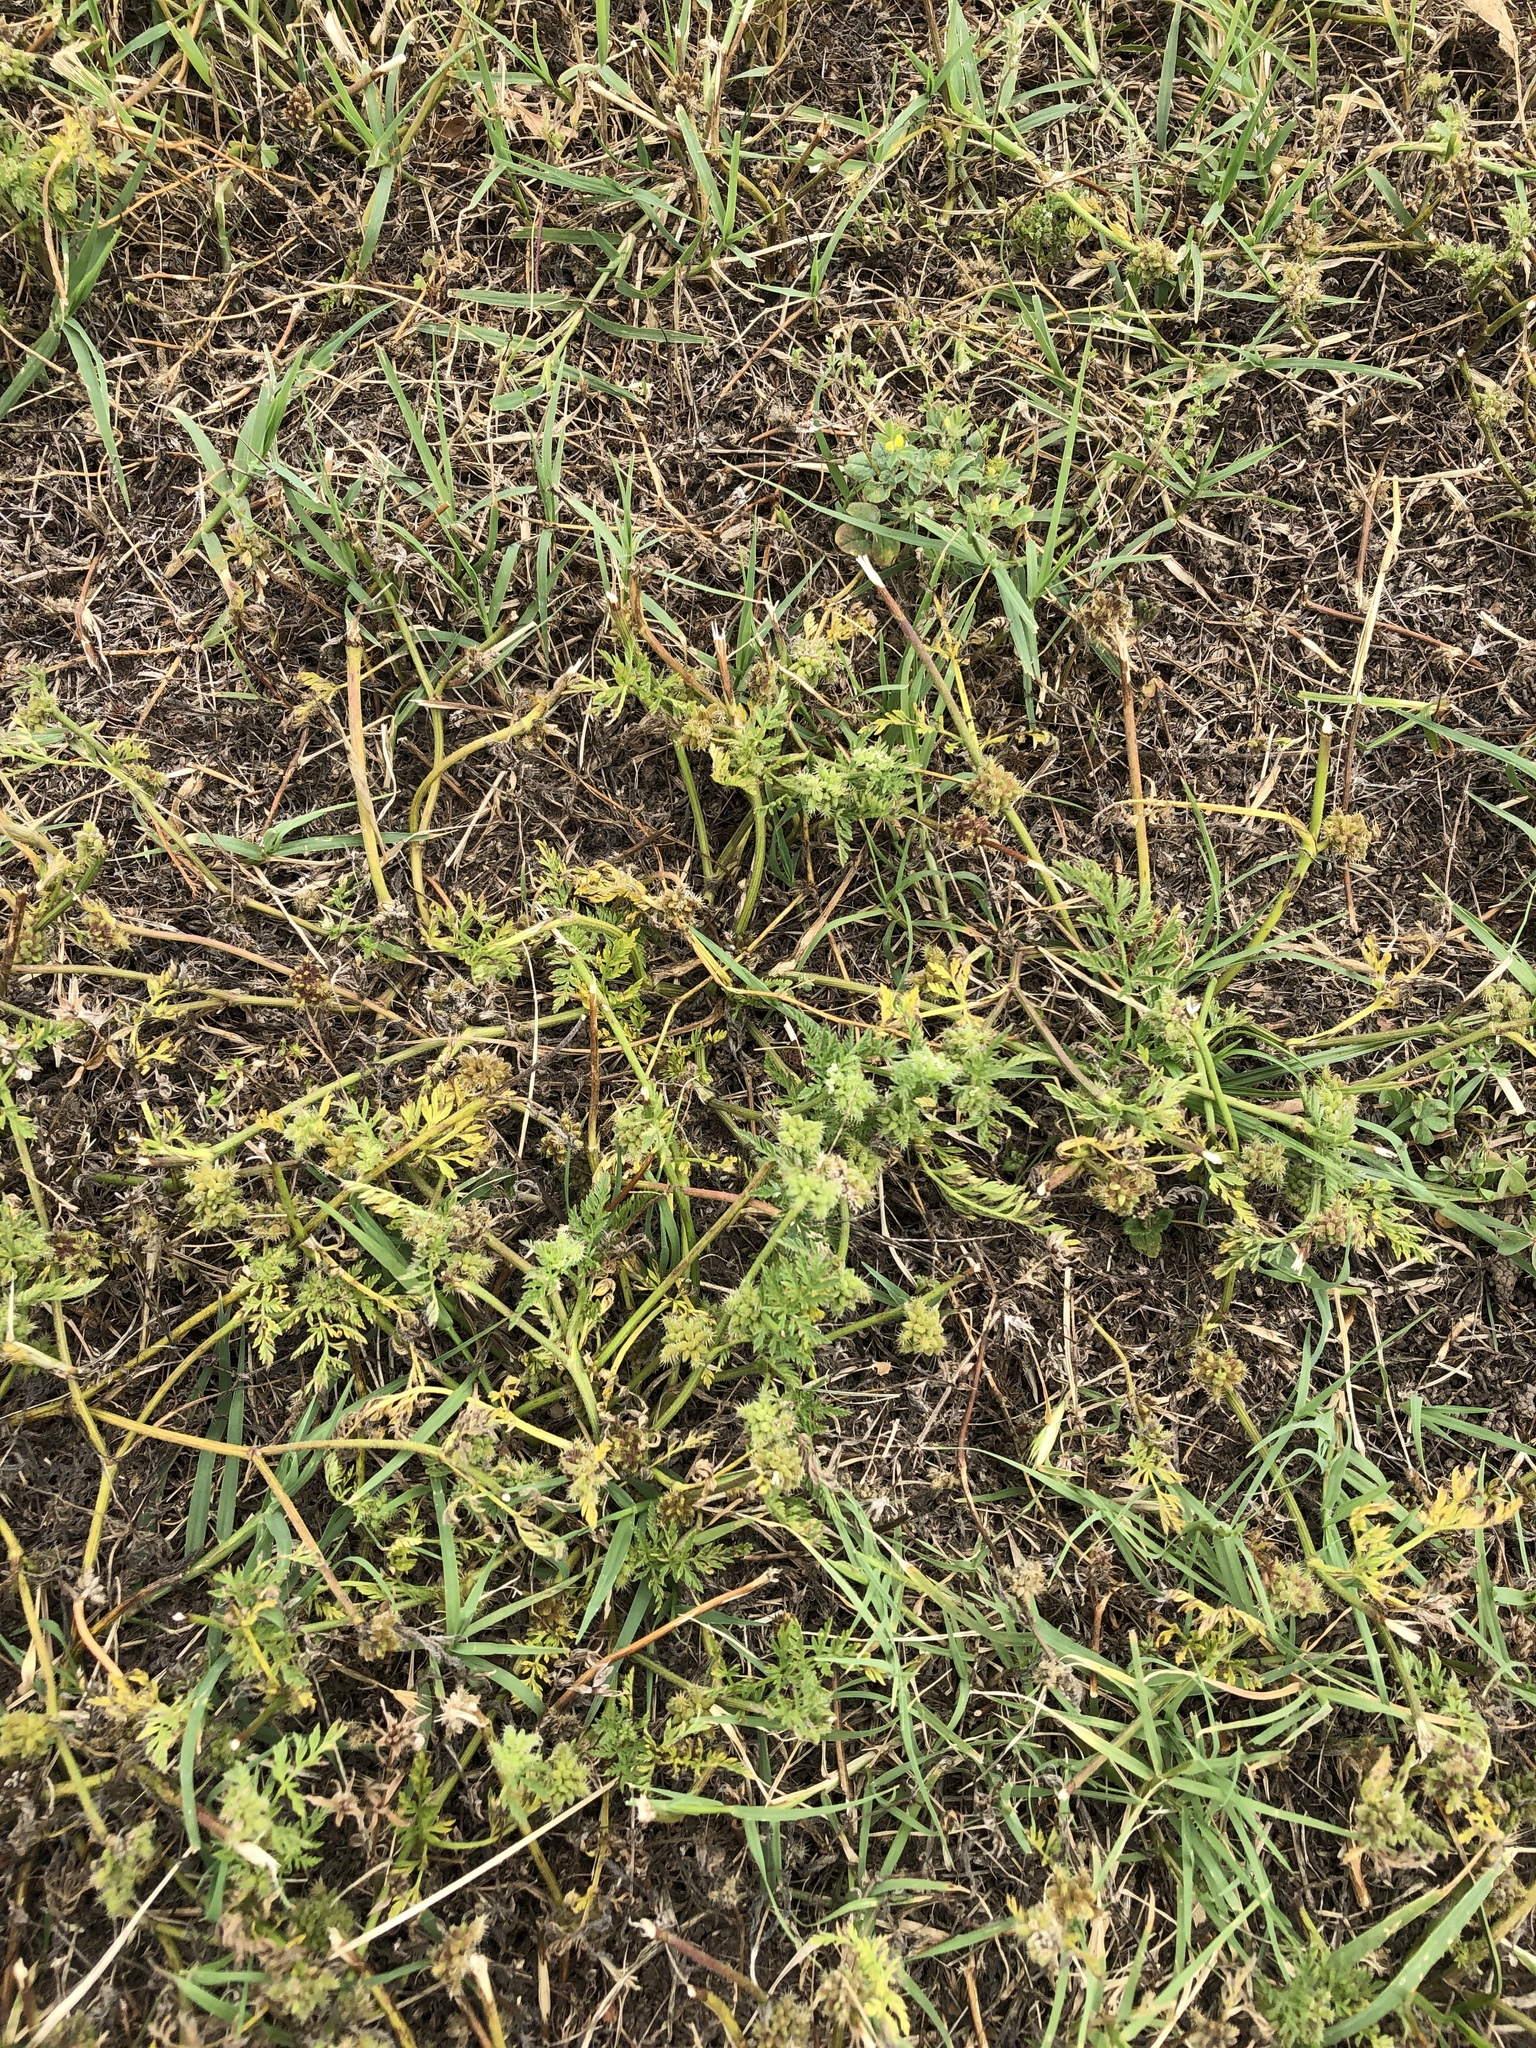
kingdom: Plantae
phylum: Tracheophyta
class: Magnoliopsida
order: Apiales
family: Apiaceae
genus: Torilis
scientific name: Torilis nodosa
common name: Knotted hedge-parsley
